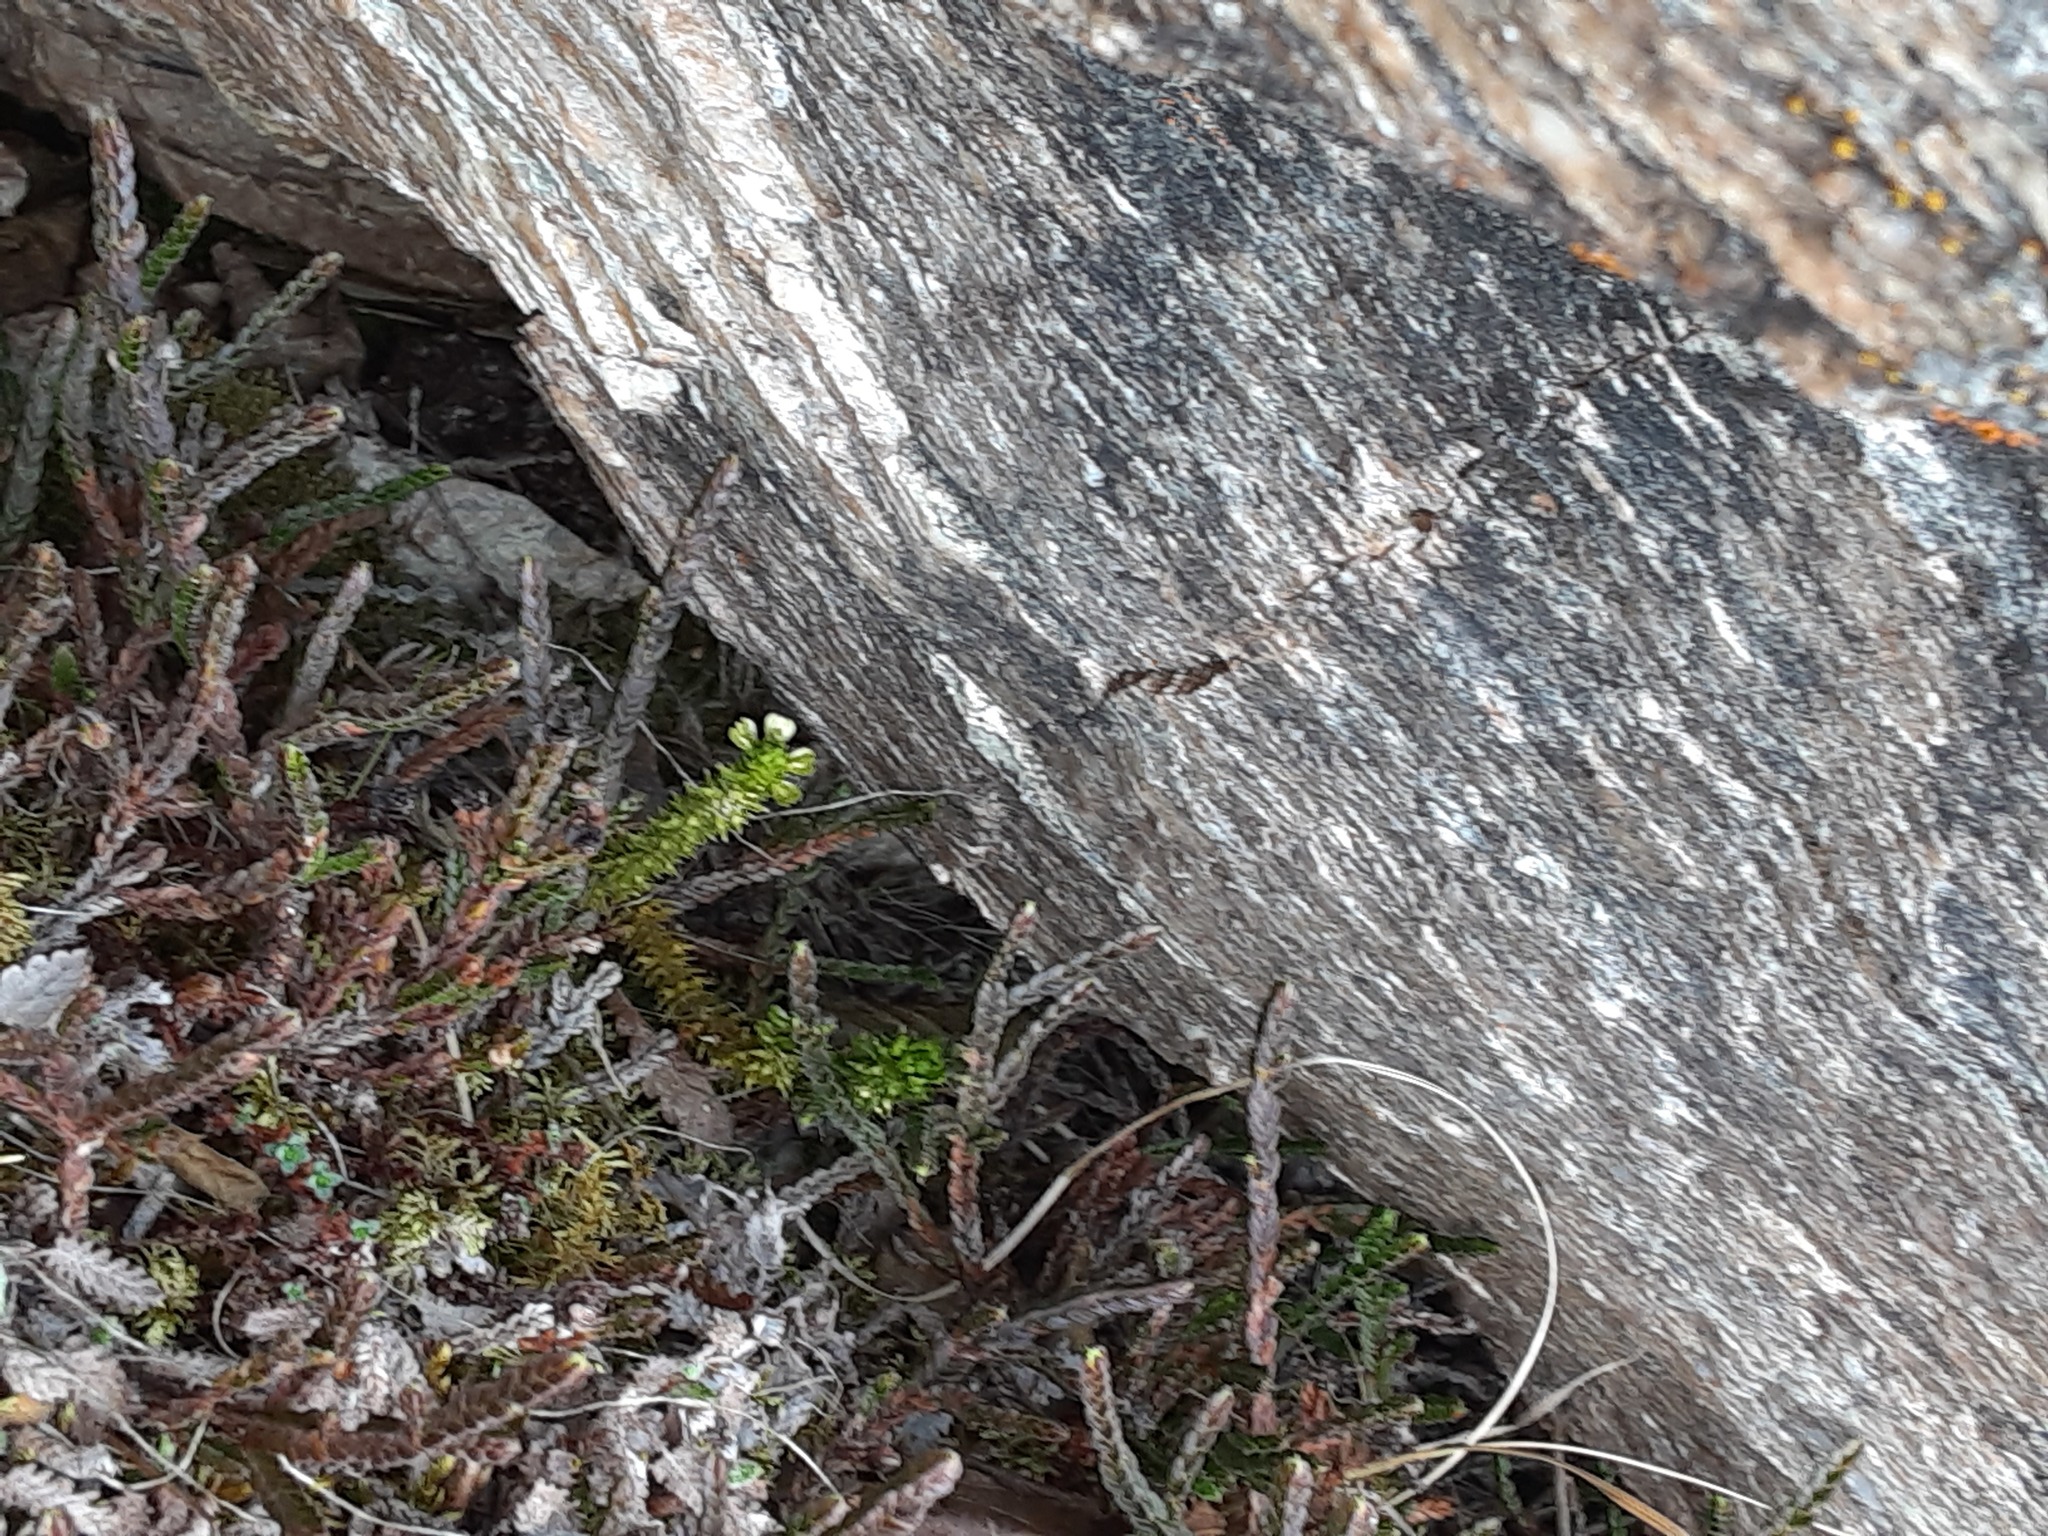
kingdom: Plantae
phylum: Tracheophyta
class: Lycopodiopsida
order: Lycopodiales
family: Lycopodiaceae
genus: Huperzia
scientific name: Huperzia selago
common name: Northern firmoss
